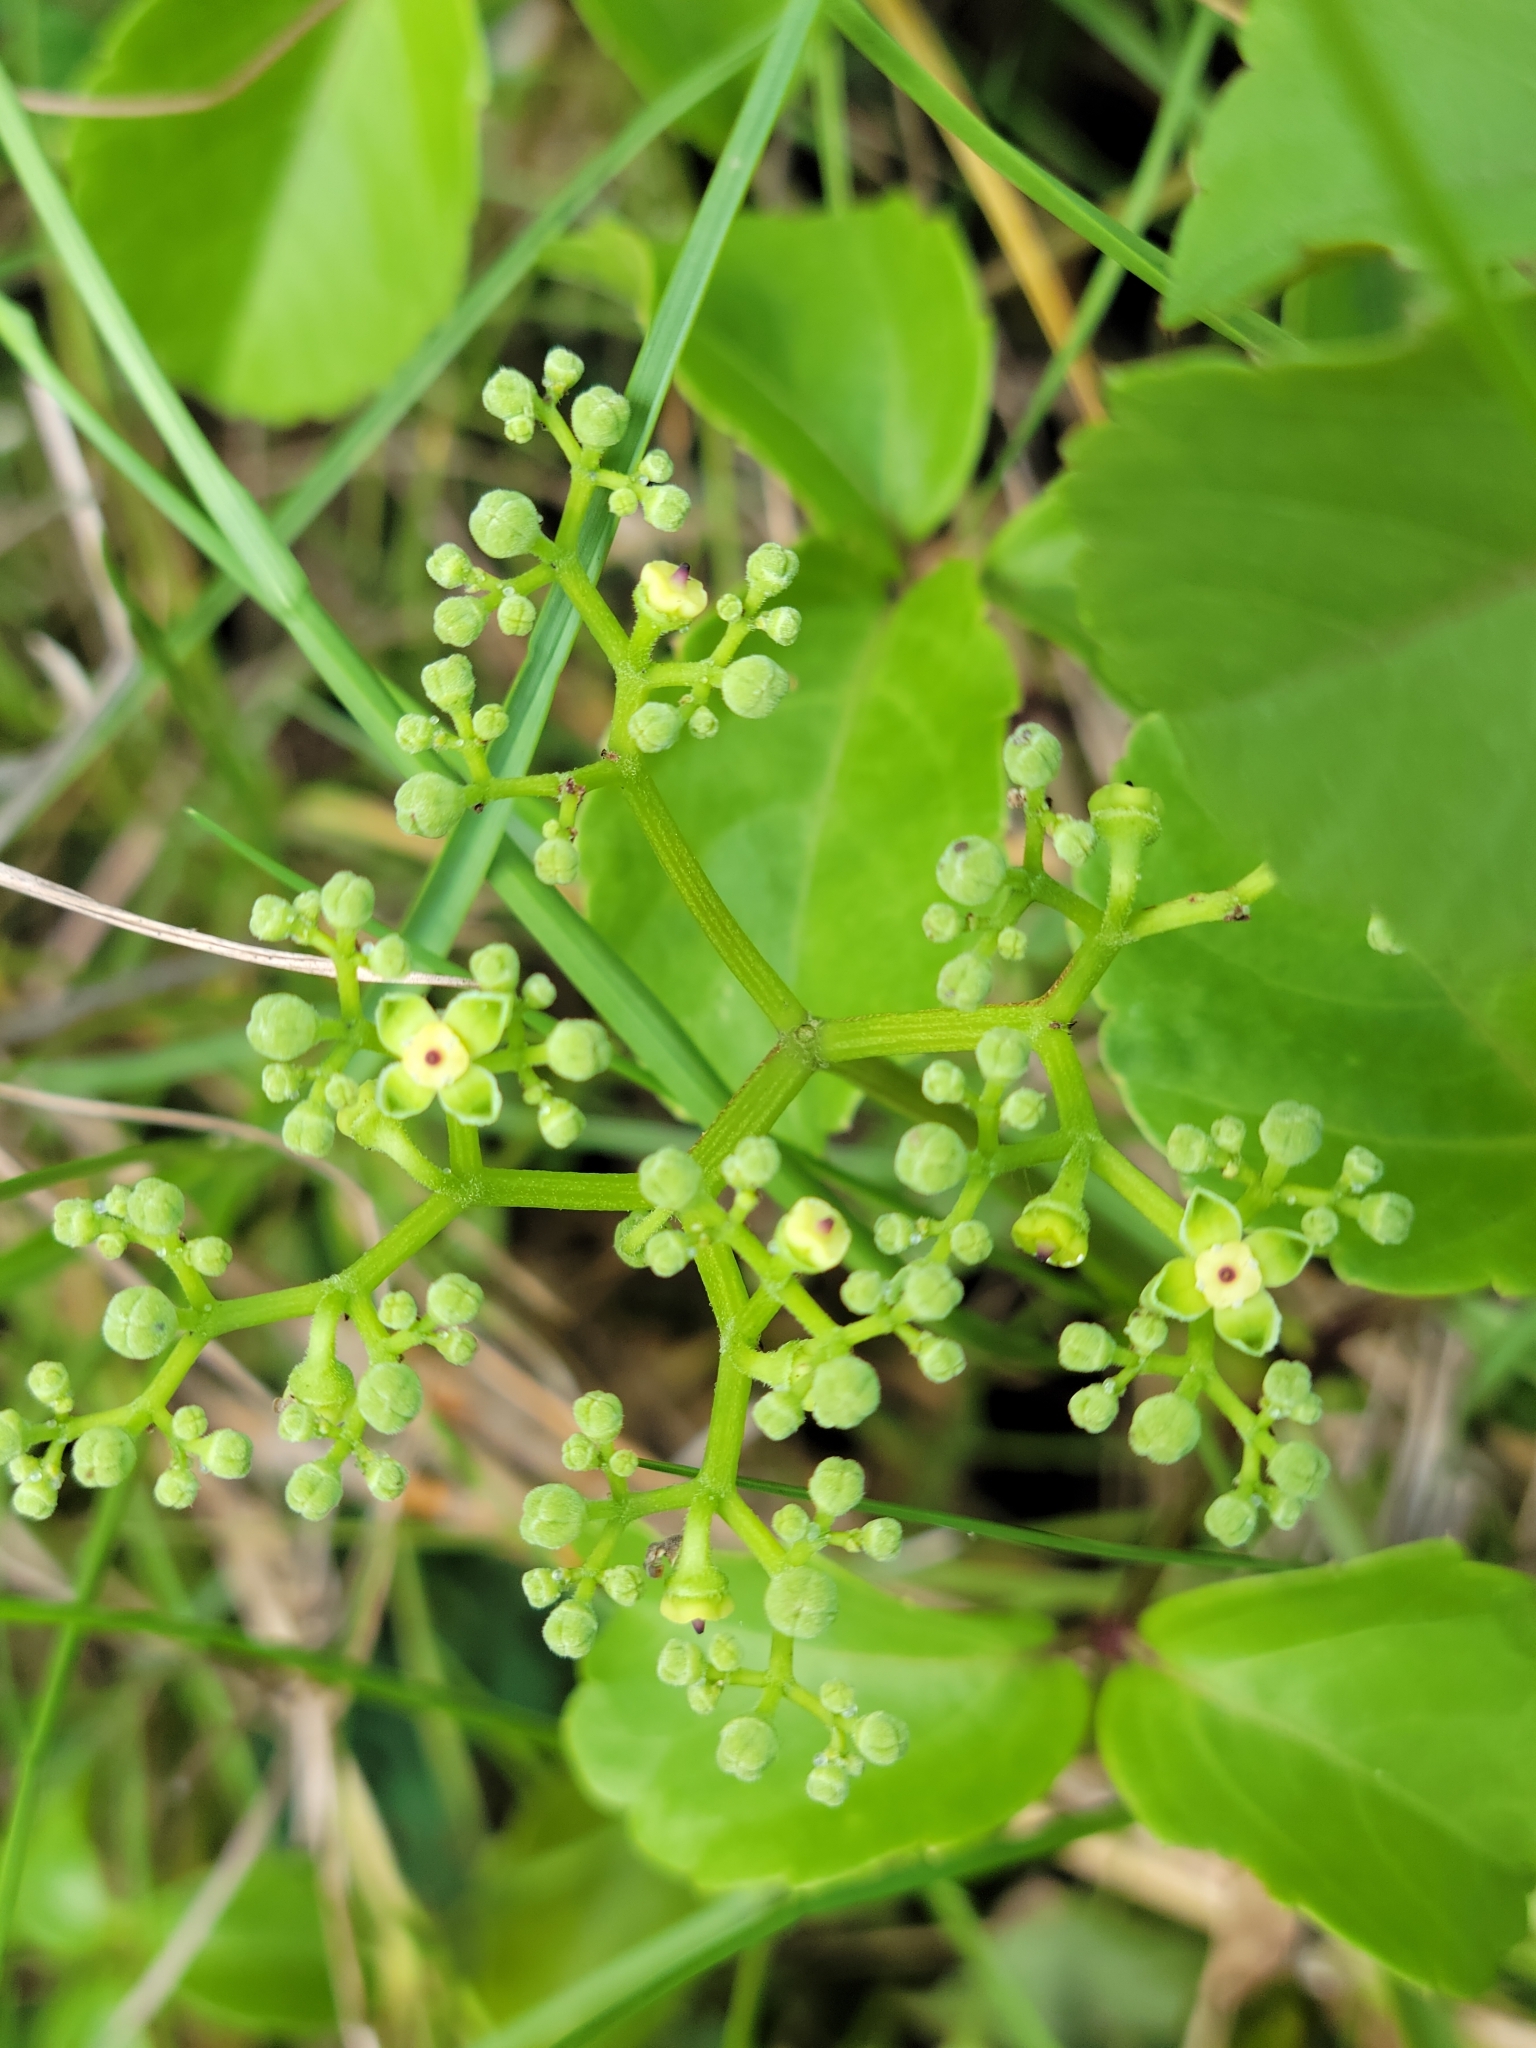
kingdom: Plantae
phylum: Tracheophyta
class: Magnoliopsida
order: Vitales
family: Vitaceae
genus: Causonis
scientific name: Causonis trifolia
